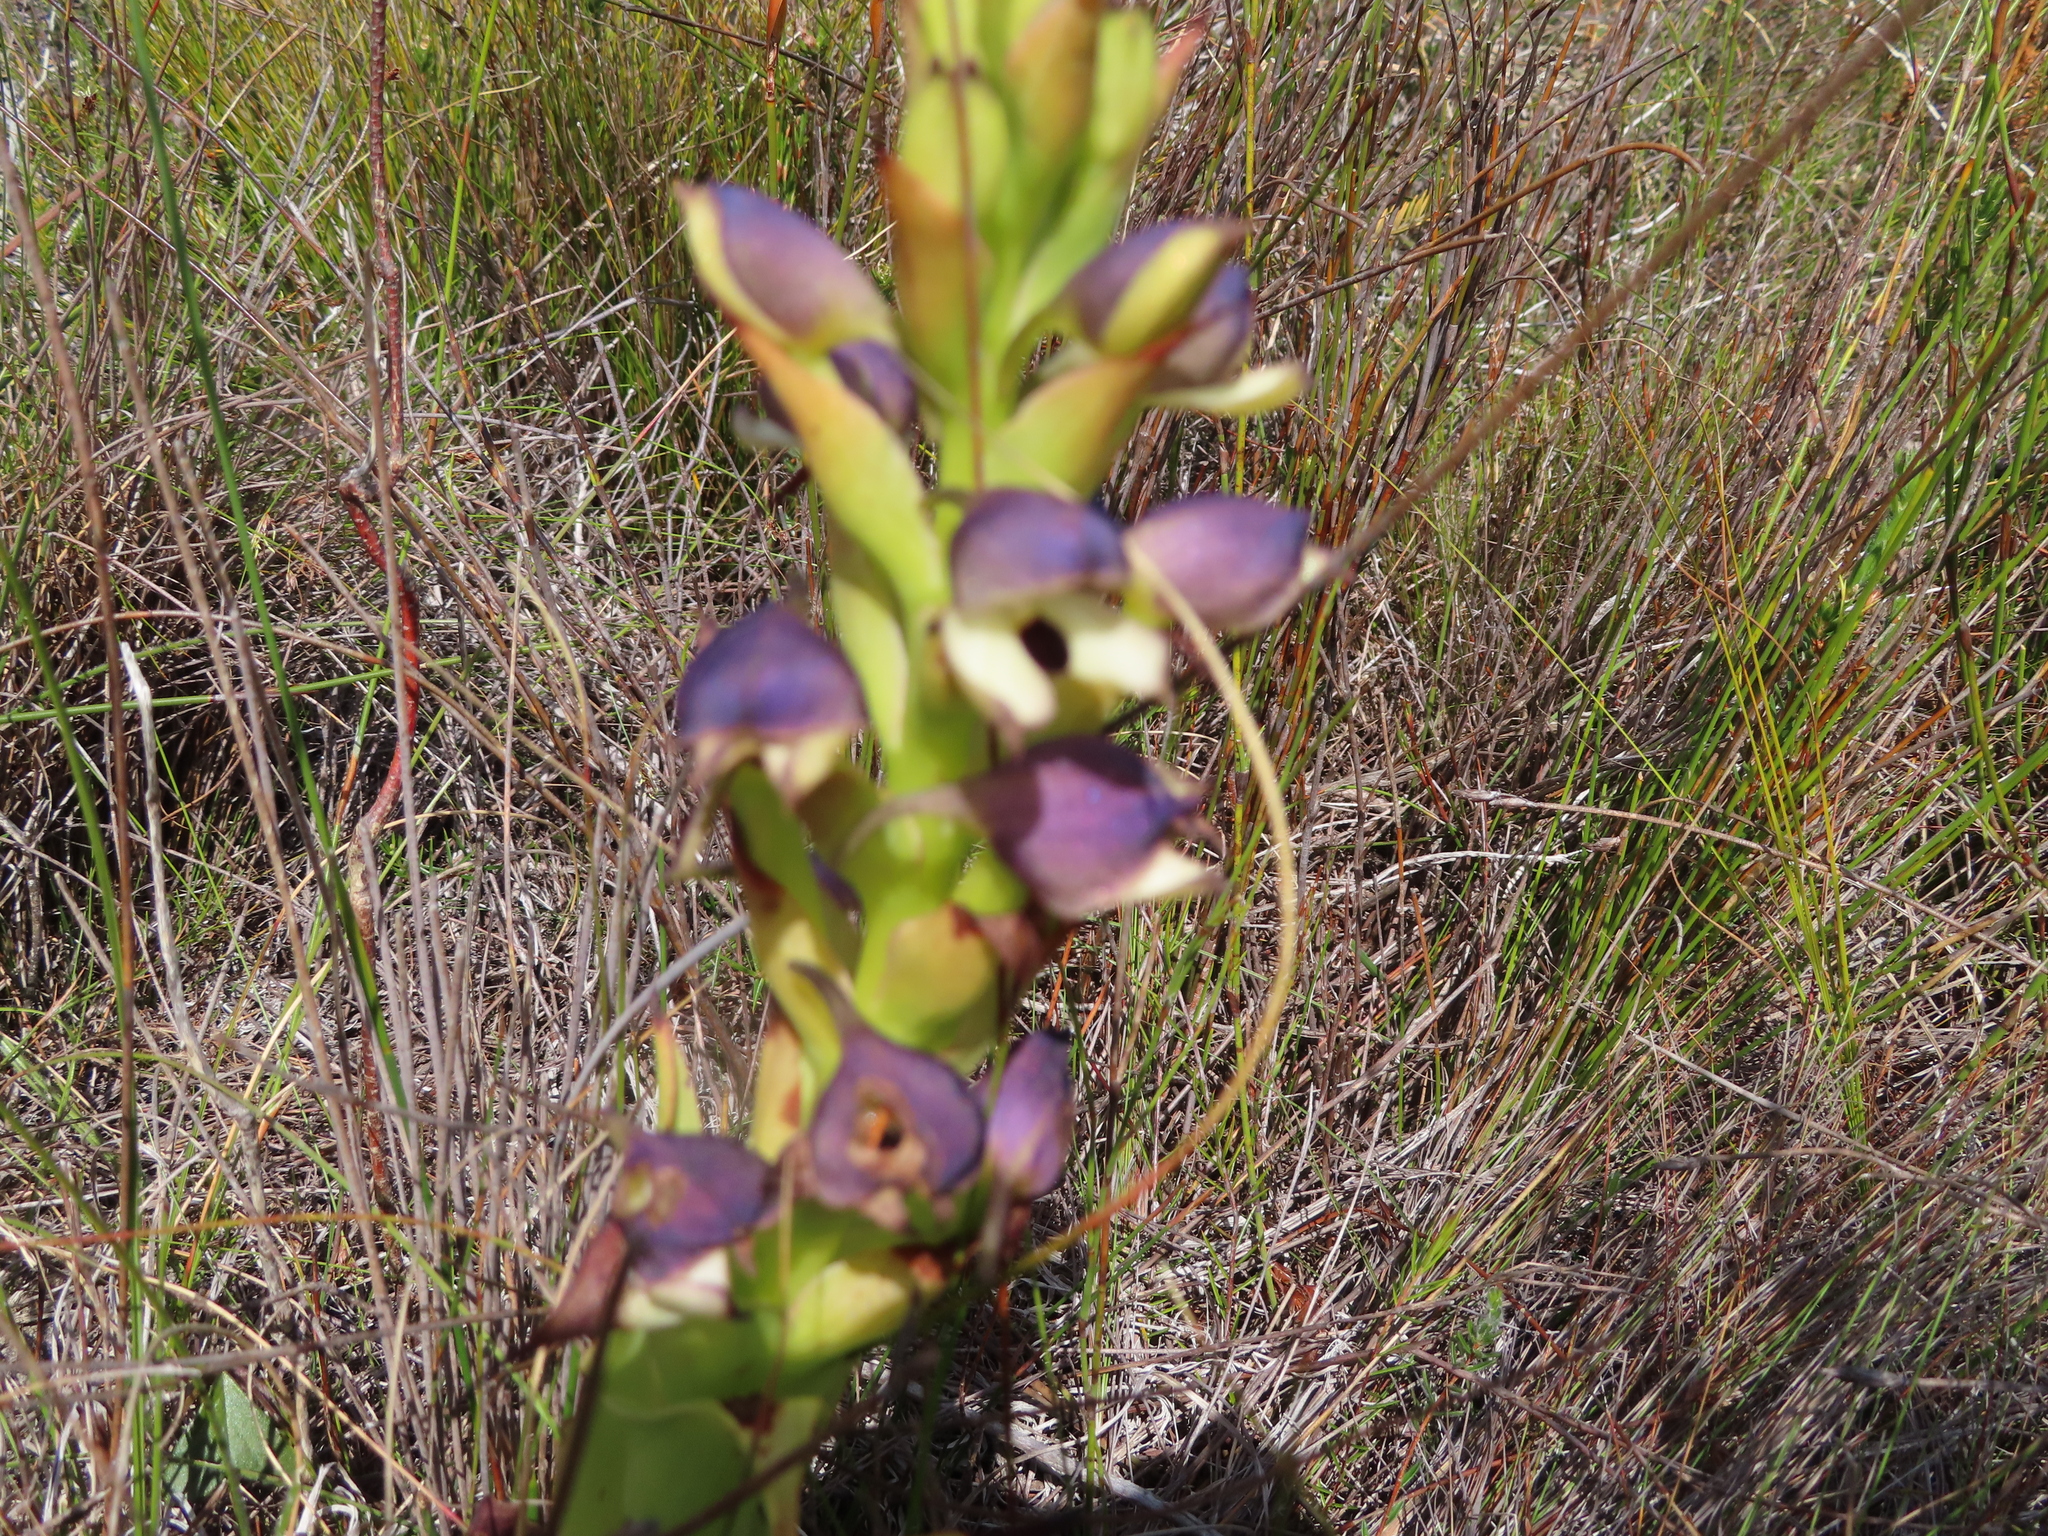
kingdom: Plantae
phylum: Tracheophyta
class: Liliopsida
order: Asparagales
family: Orchidaceae
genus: Disa
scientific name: Disa cornuta
